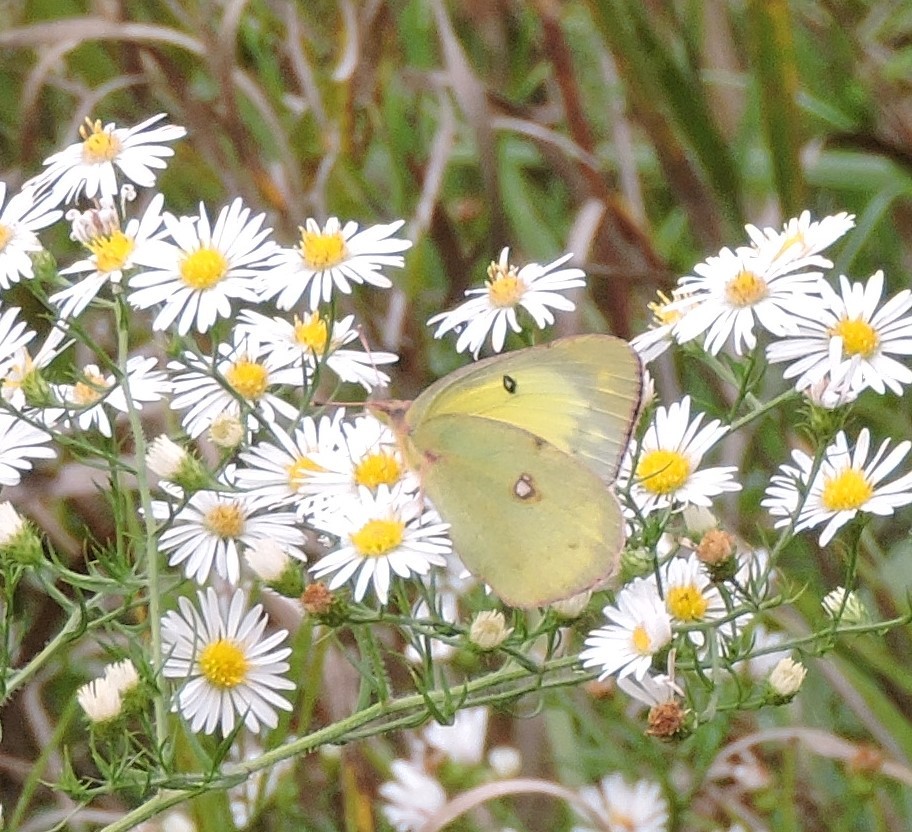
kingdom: Animalia
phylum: Arthropoda
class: Insecta
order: Lepidoptera
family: Pieridae
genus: Colias
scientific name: Colias philodice
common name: Clouded sulphur
